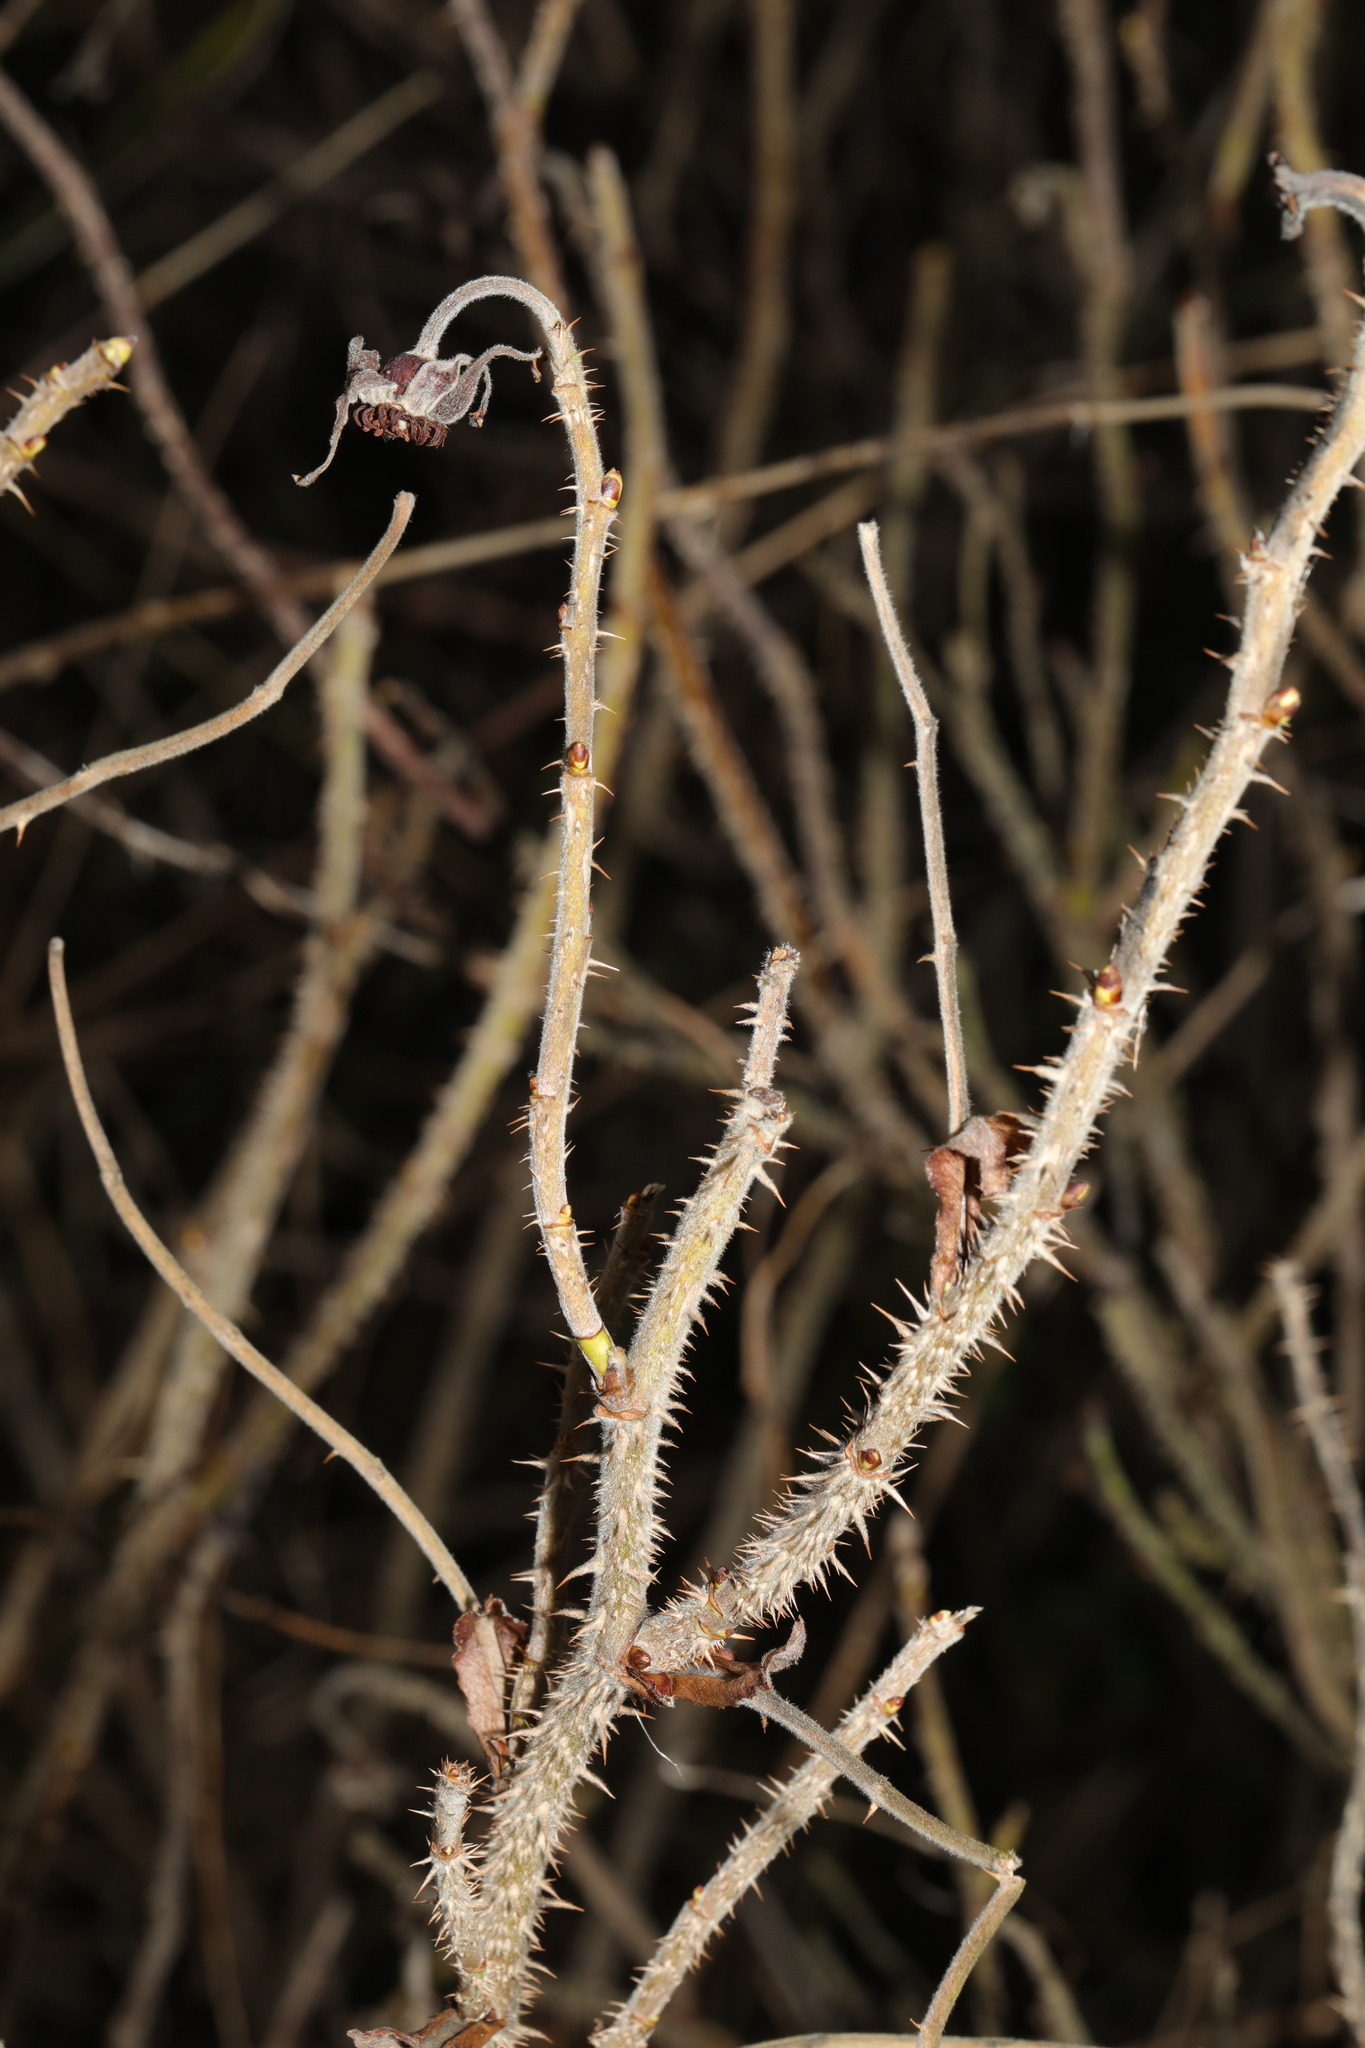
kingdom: Plantae
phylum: Tracheophyta
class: Magnoliopsida
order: Rosales
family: Rosaceae
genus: Rosa
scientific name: Rosa rugosa
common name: Japanese rose
